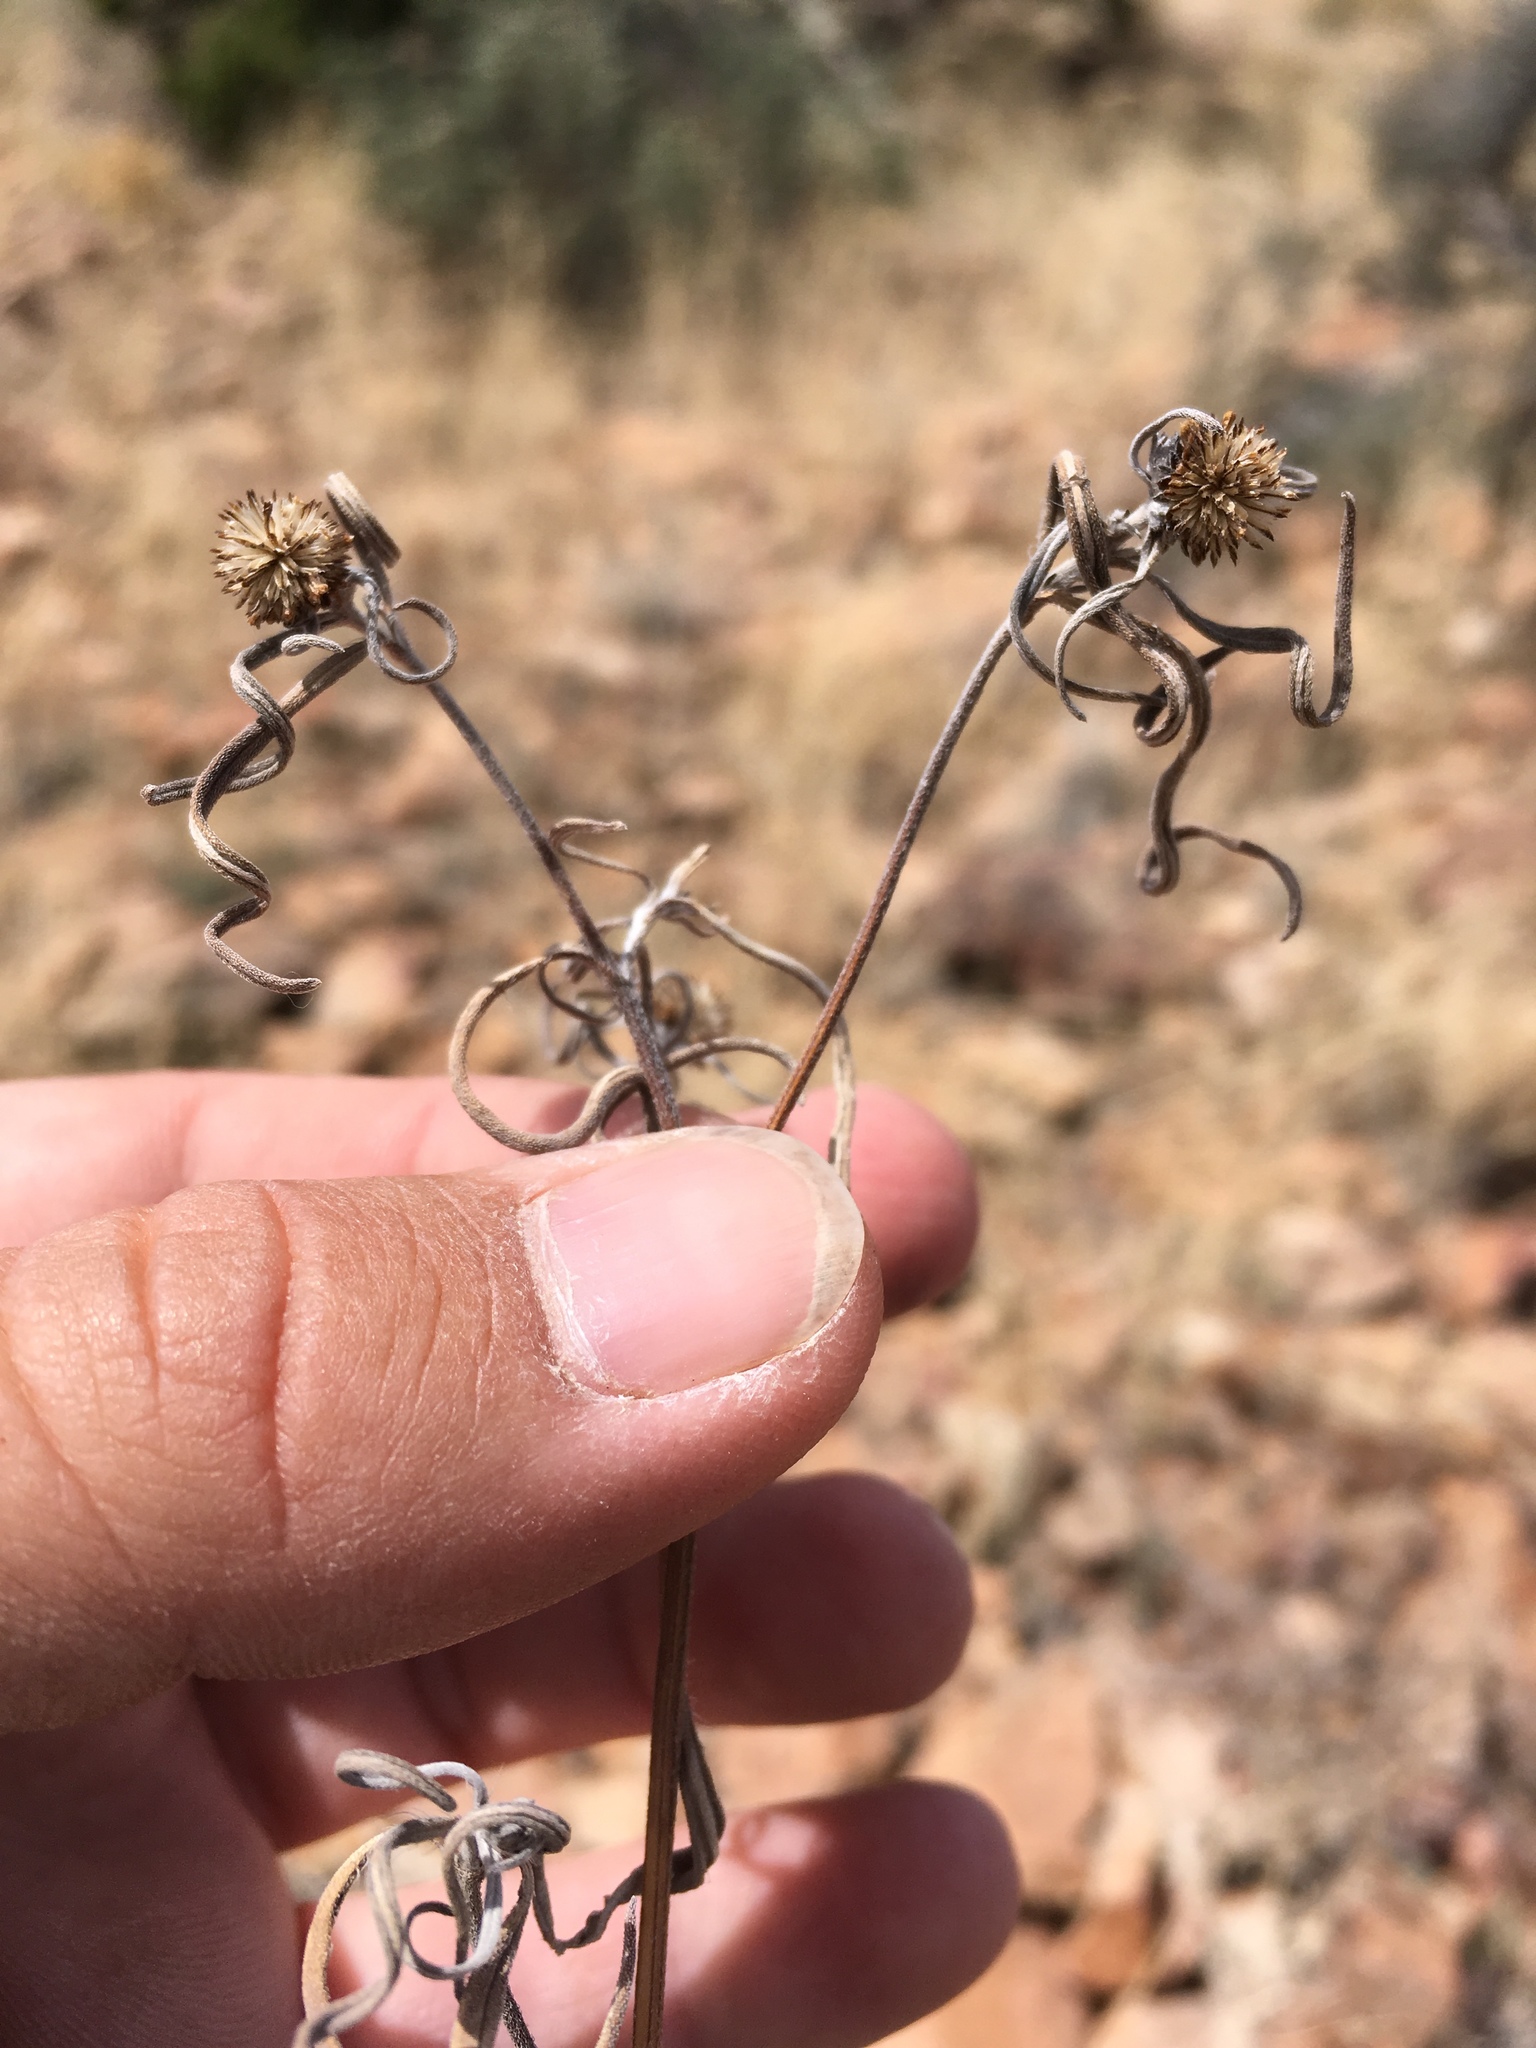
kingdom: Plantae
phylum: Tracheophyta
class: Magnoliopsida
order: Asterales
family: Asteraceae
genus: Heliomeris
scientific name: Heliomeris longifolia
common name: Longleaf false goldeneye
